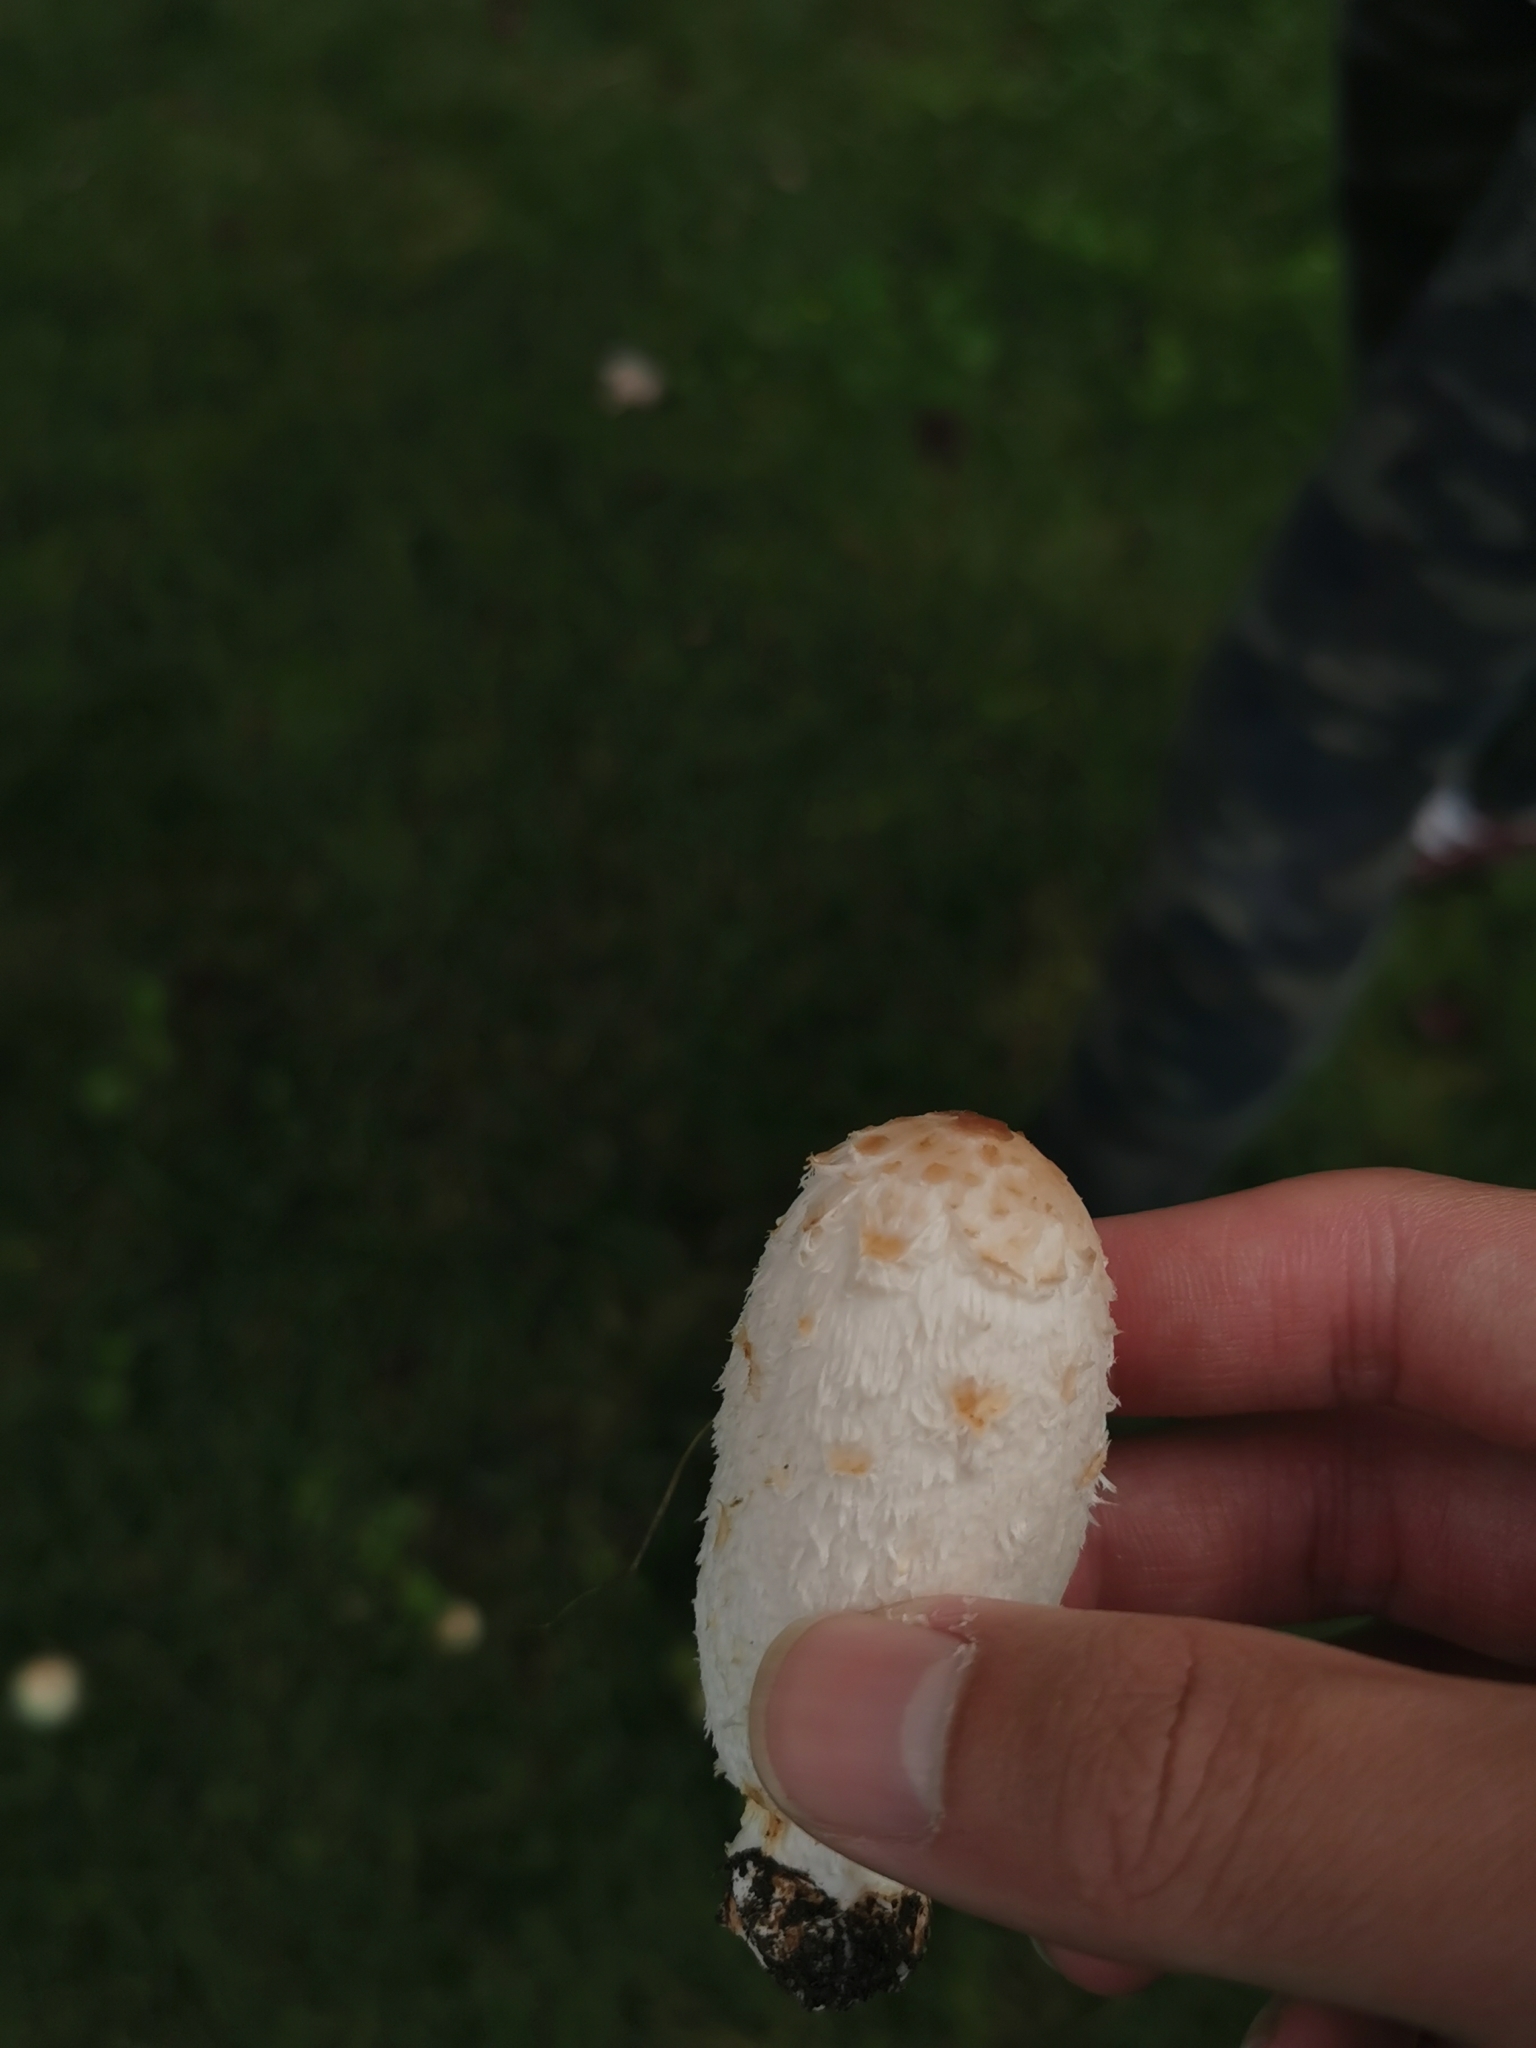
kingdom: Fungi
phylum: Basidiomycota
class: Agaricomycetes
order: Agaricales
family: Agaricaceae
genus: Coprinus
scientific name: Coprinus comatus
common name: Lawyer's wig
